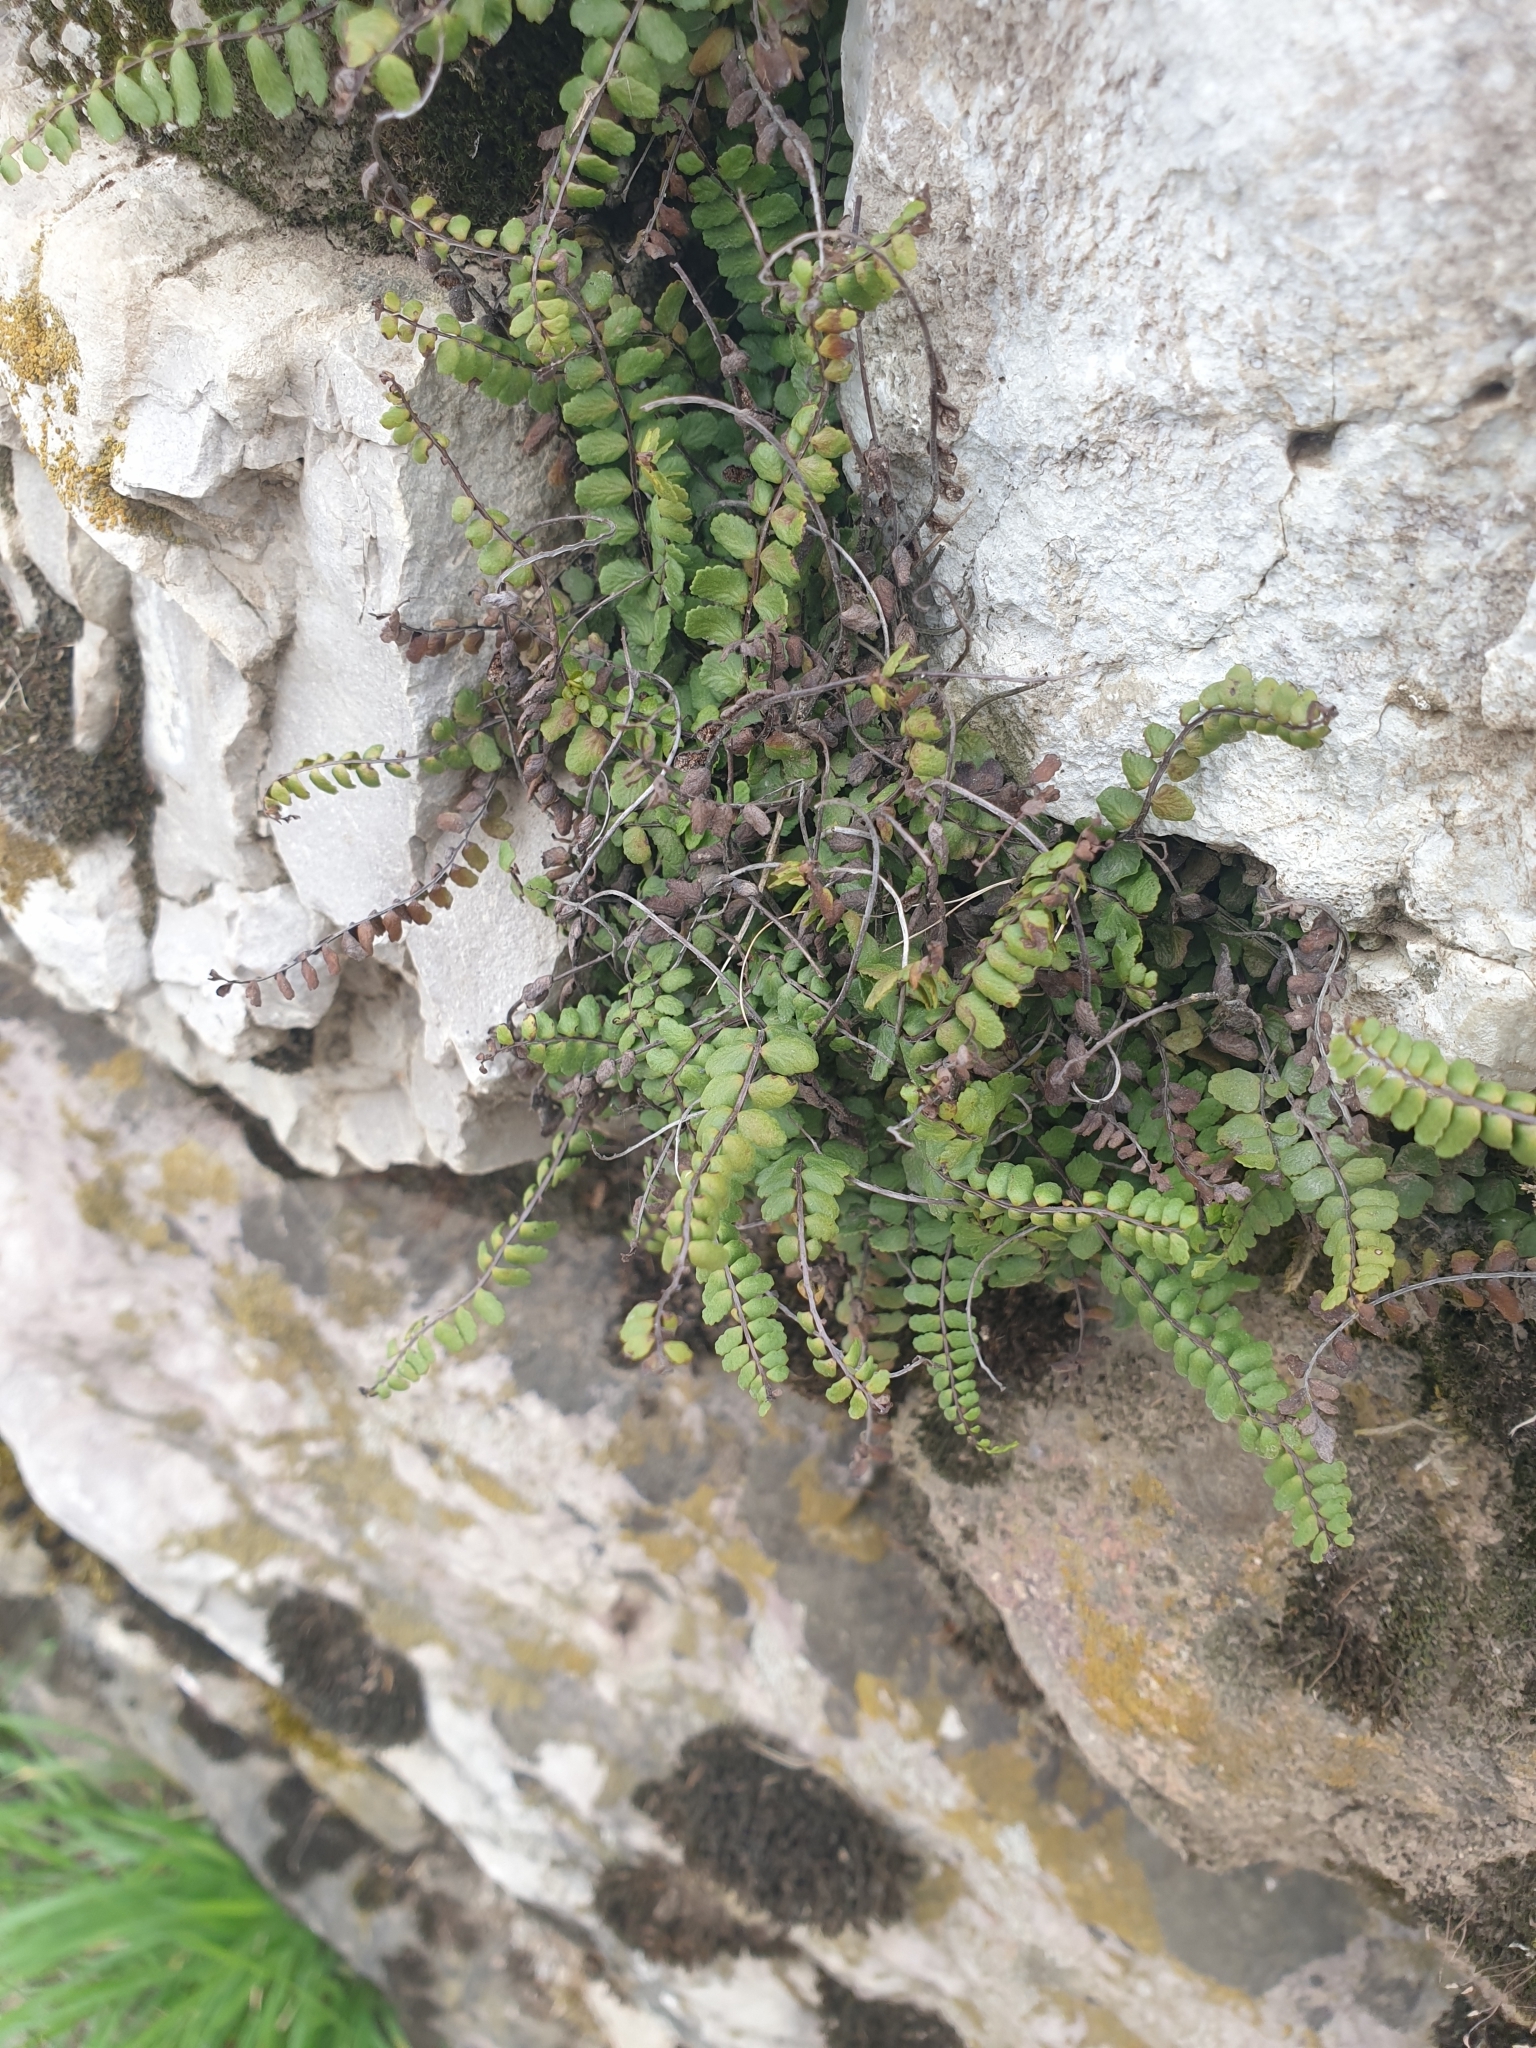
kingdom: Plantae
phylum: Tracheophyta
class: Polypodiopsida
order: Polypodiales
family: Aspleniaceae
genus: Asplenium
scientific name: Asplenium trichomanes
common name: Maidenhair spleenwort
